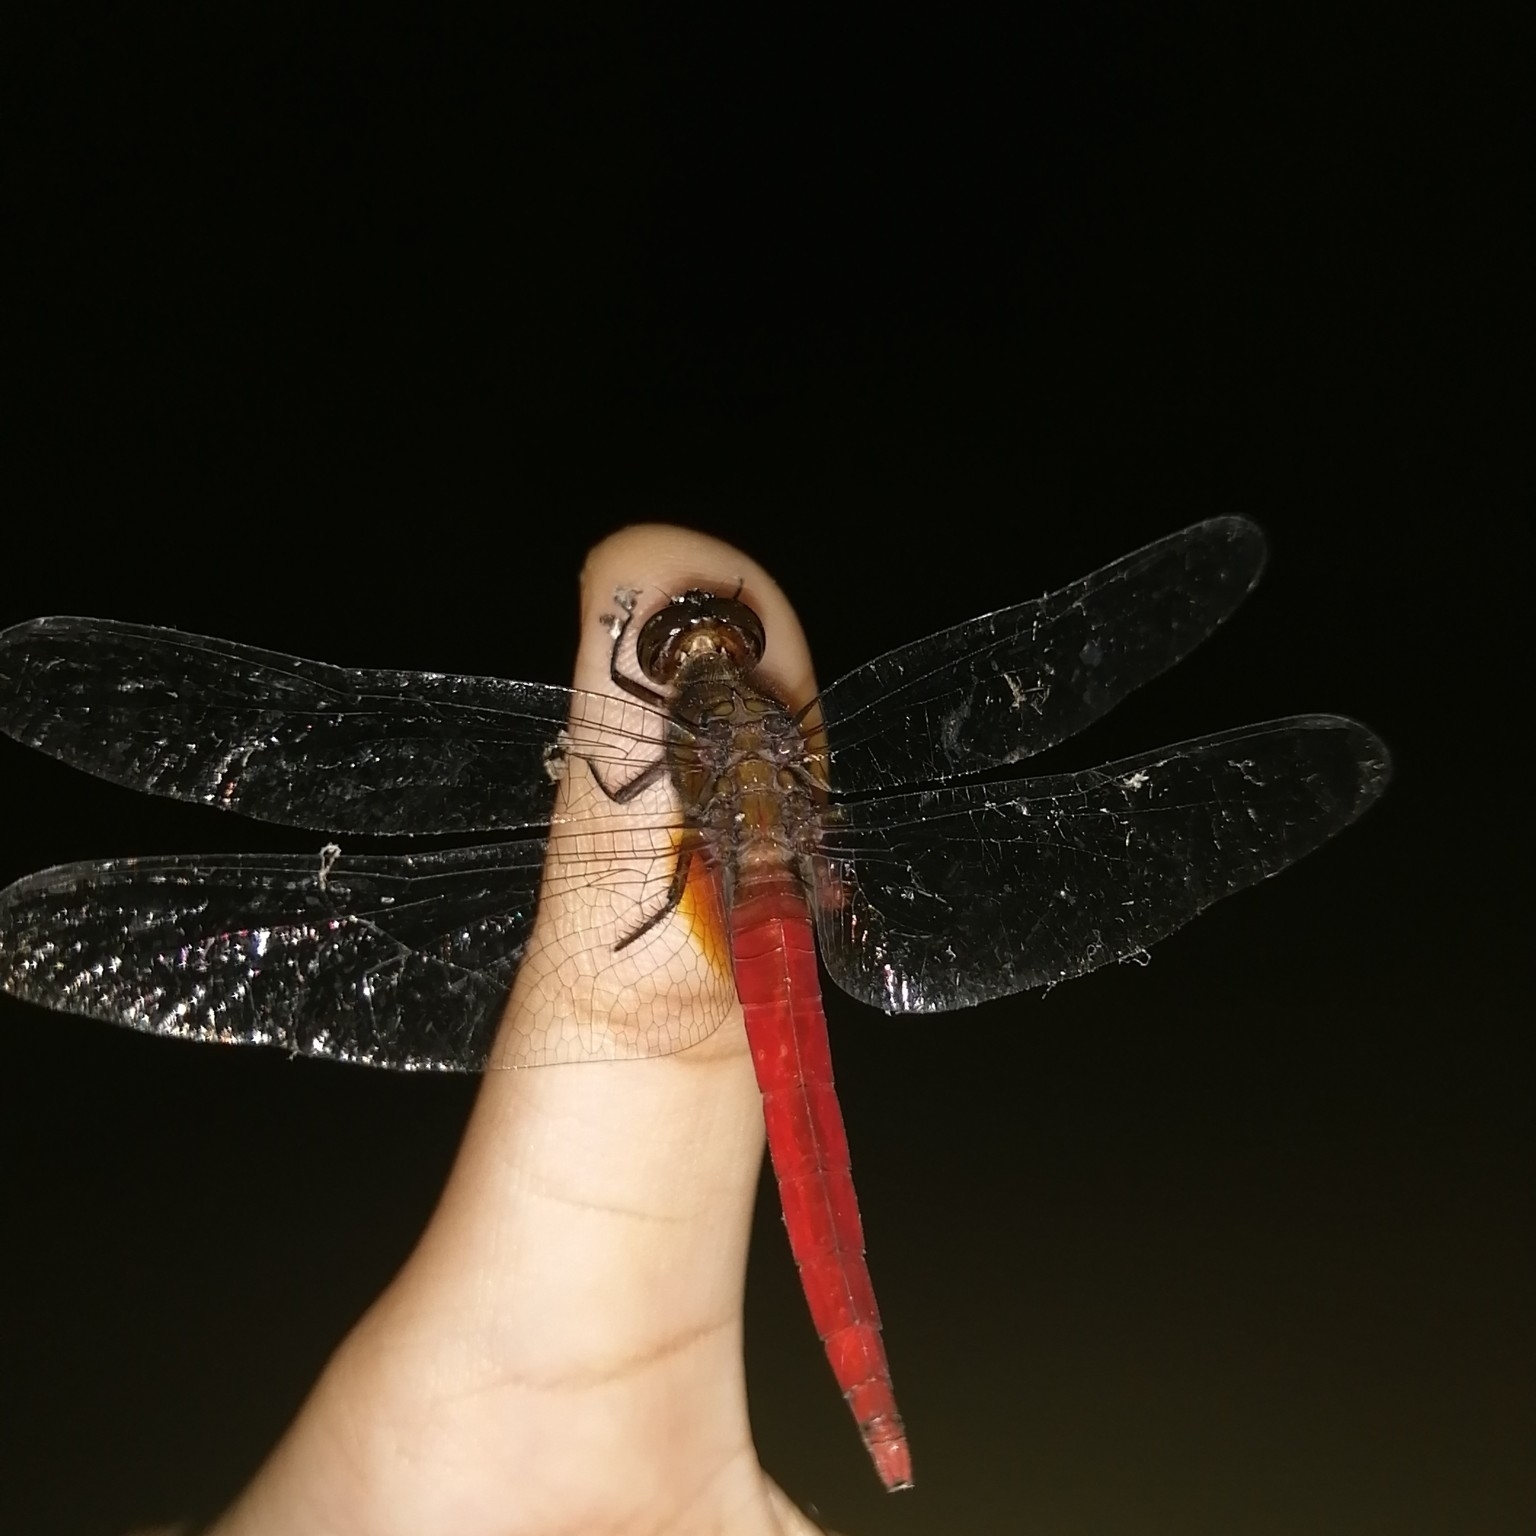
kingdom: Animalia
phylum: Arthropoda
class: Insecta
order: Odonata
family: Libellulidae
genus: Orthetrum
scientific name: Orthetrum chrysis
